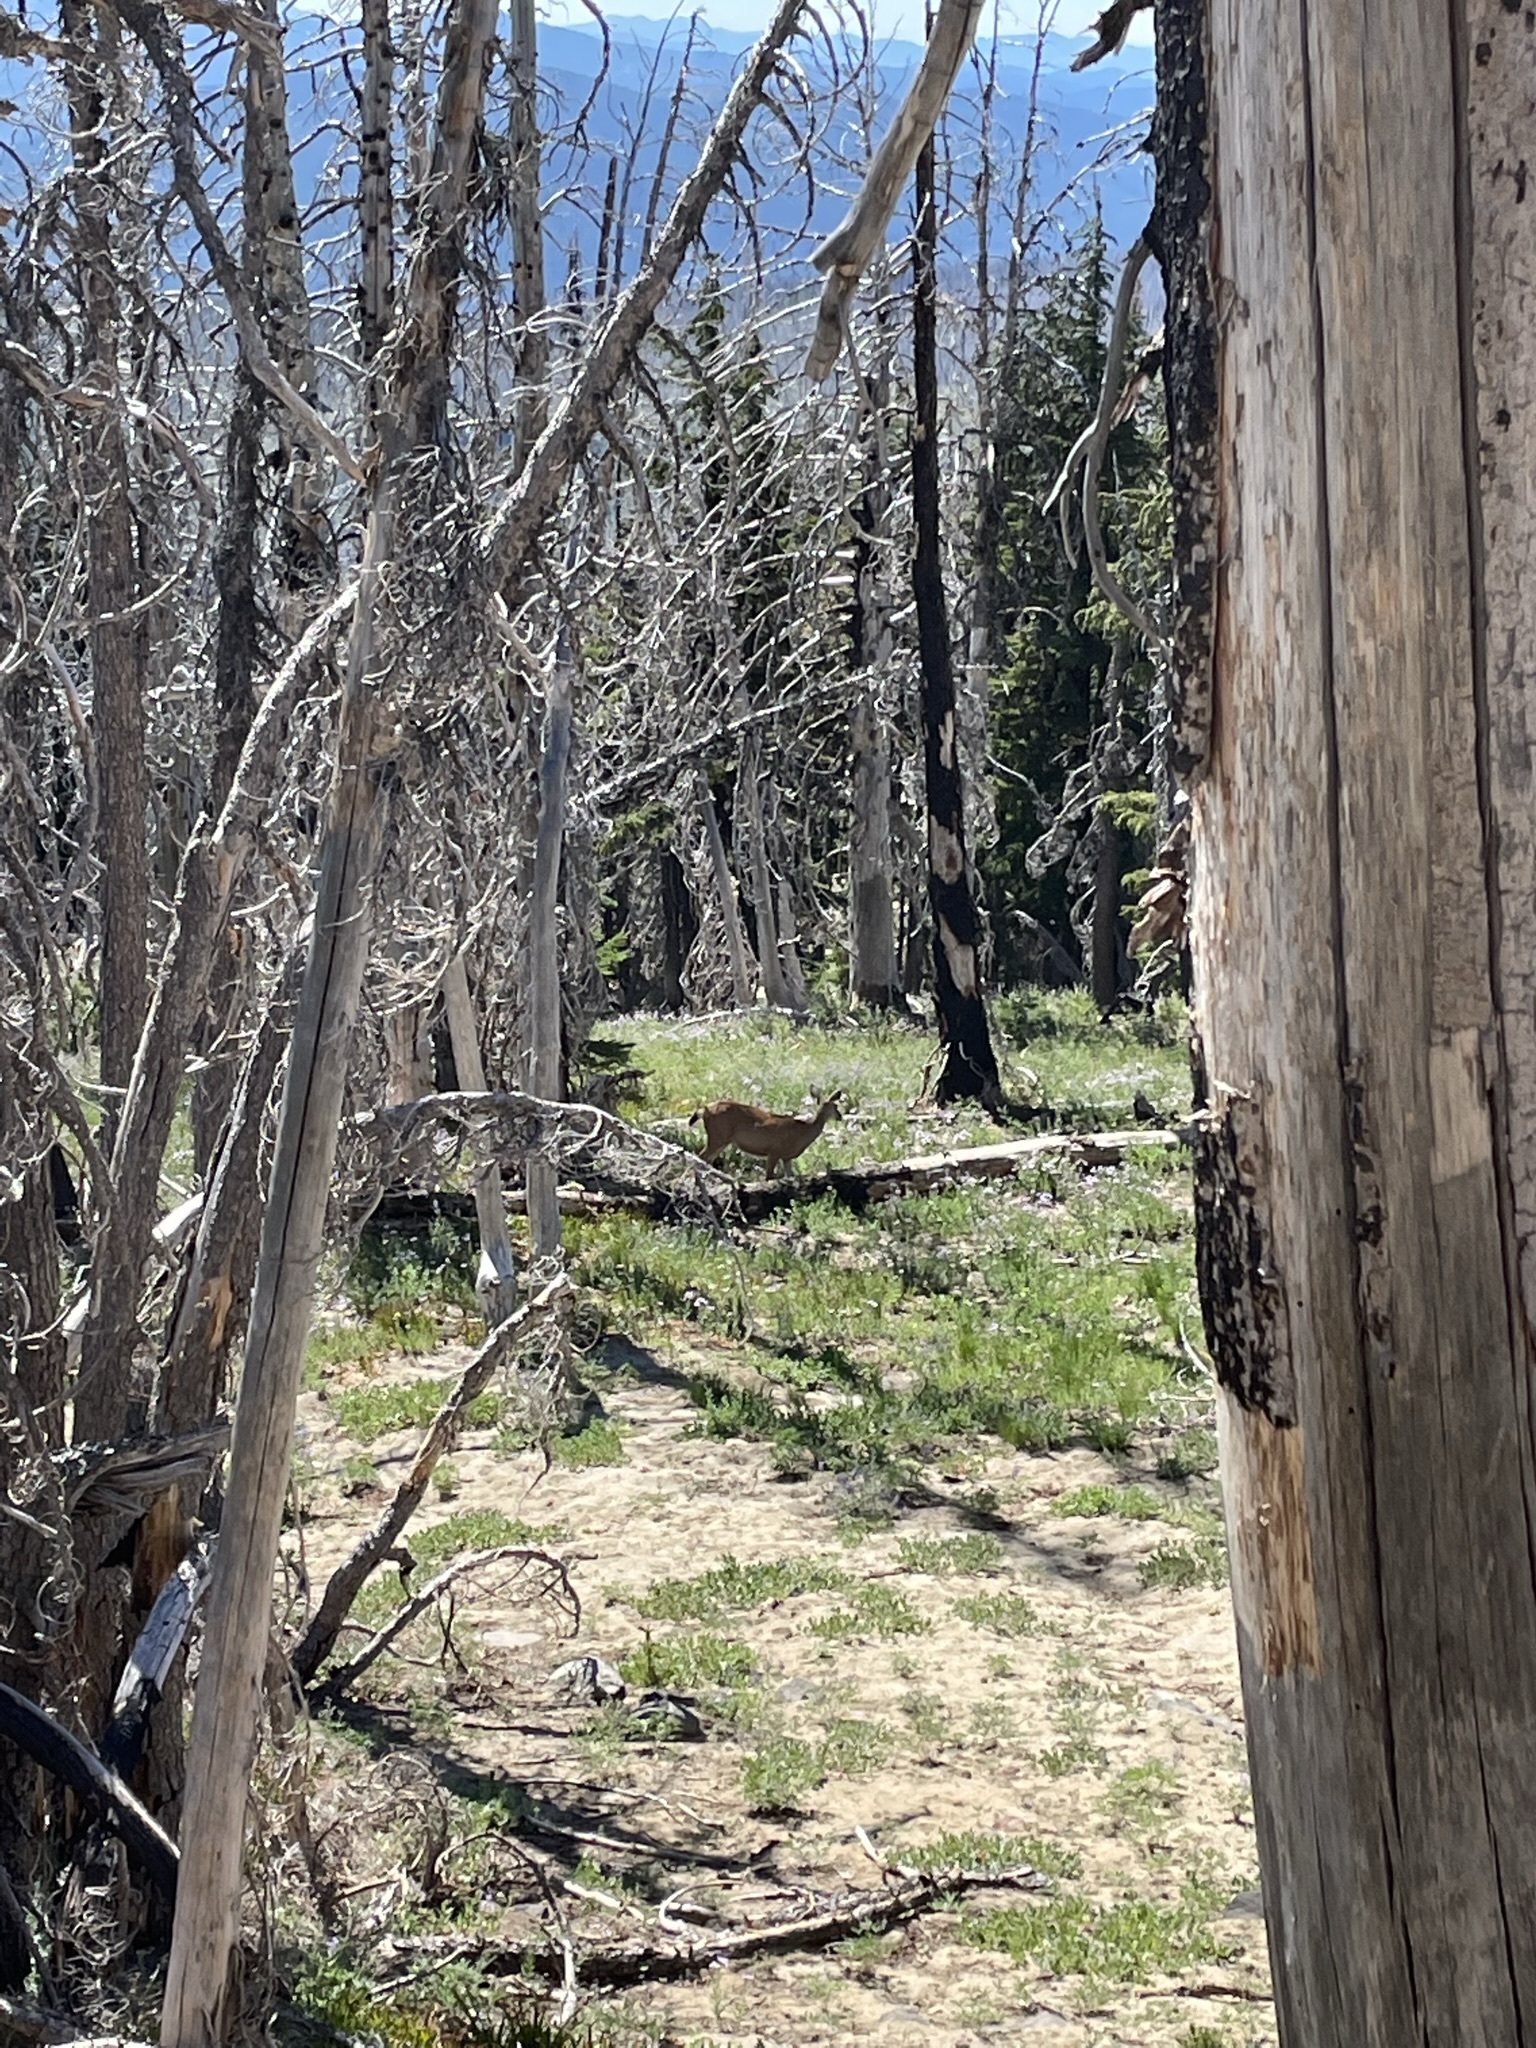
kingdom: Animalia
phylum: Chordata
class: Mammalia
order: Artiodactyla
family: Cervidae
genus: Odocoileus
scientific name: Odocoileus hemionus
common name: Mule deer
